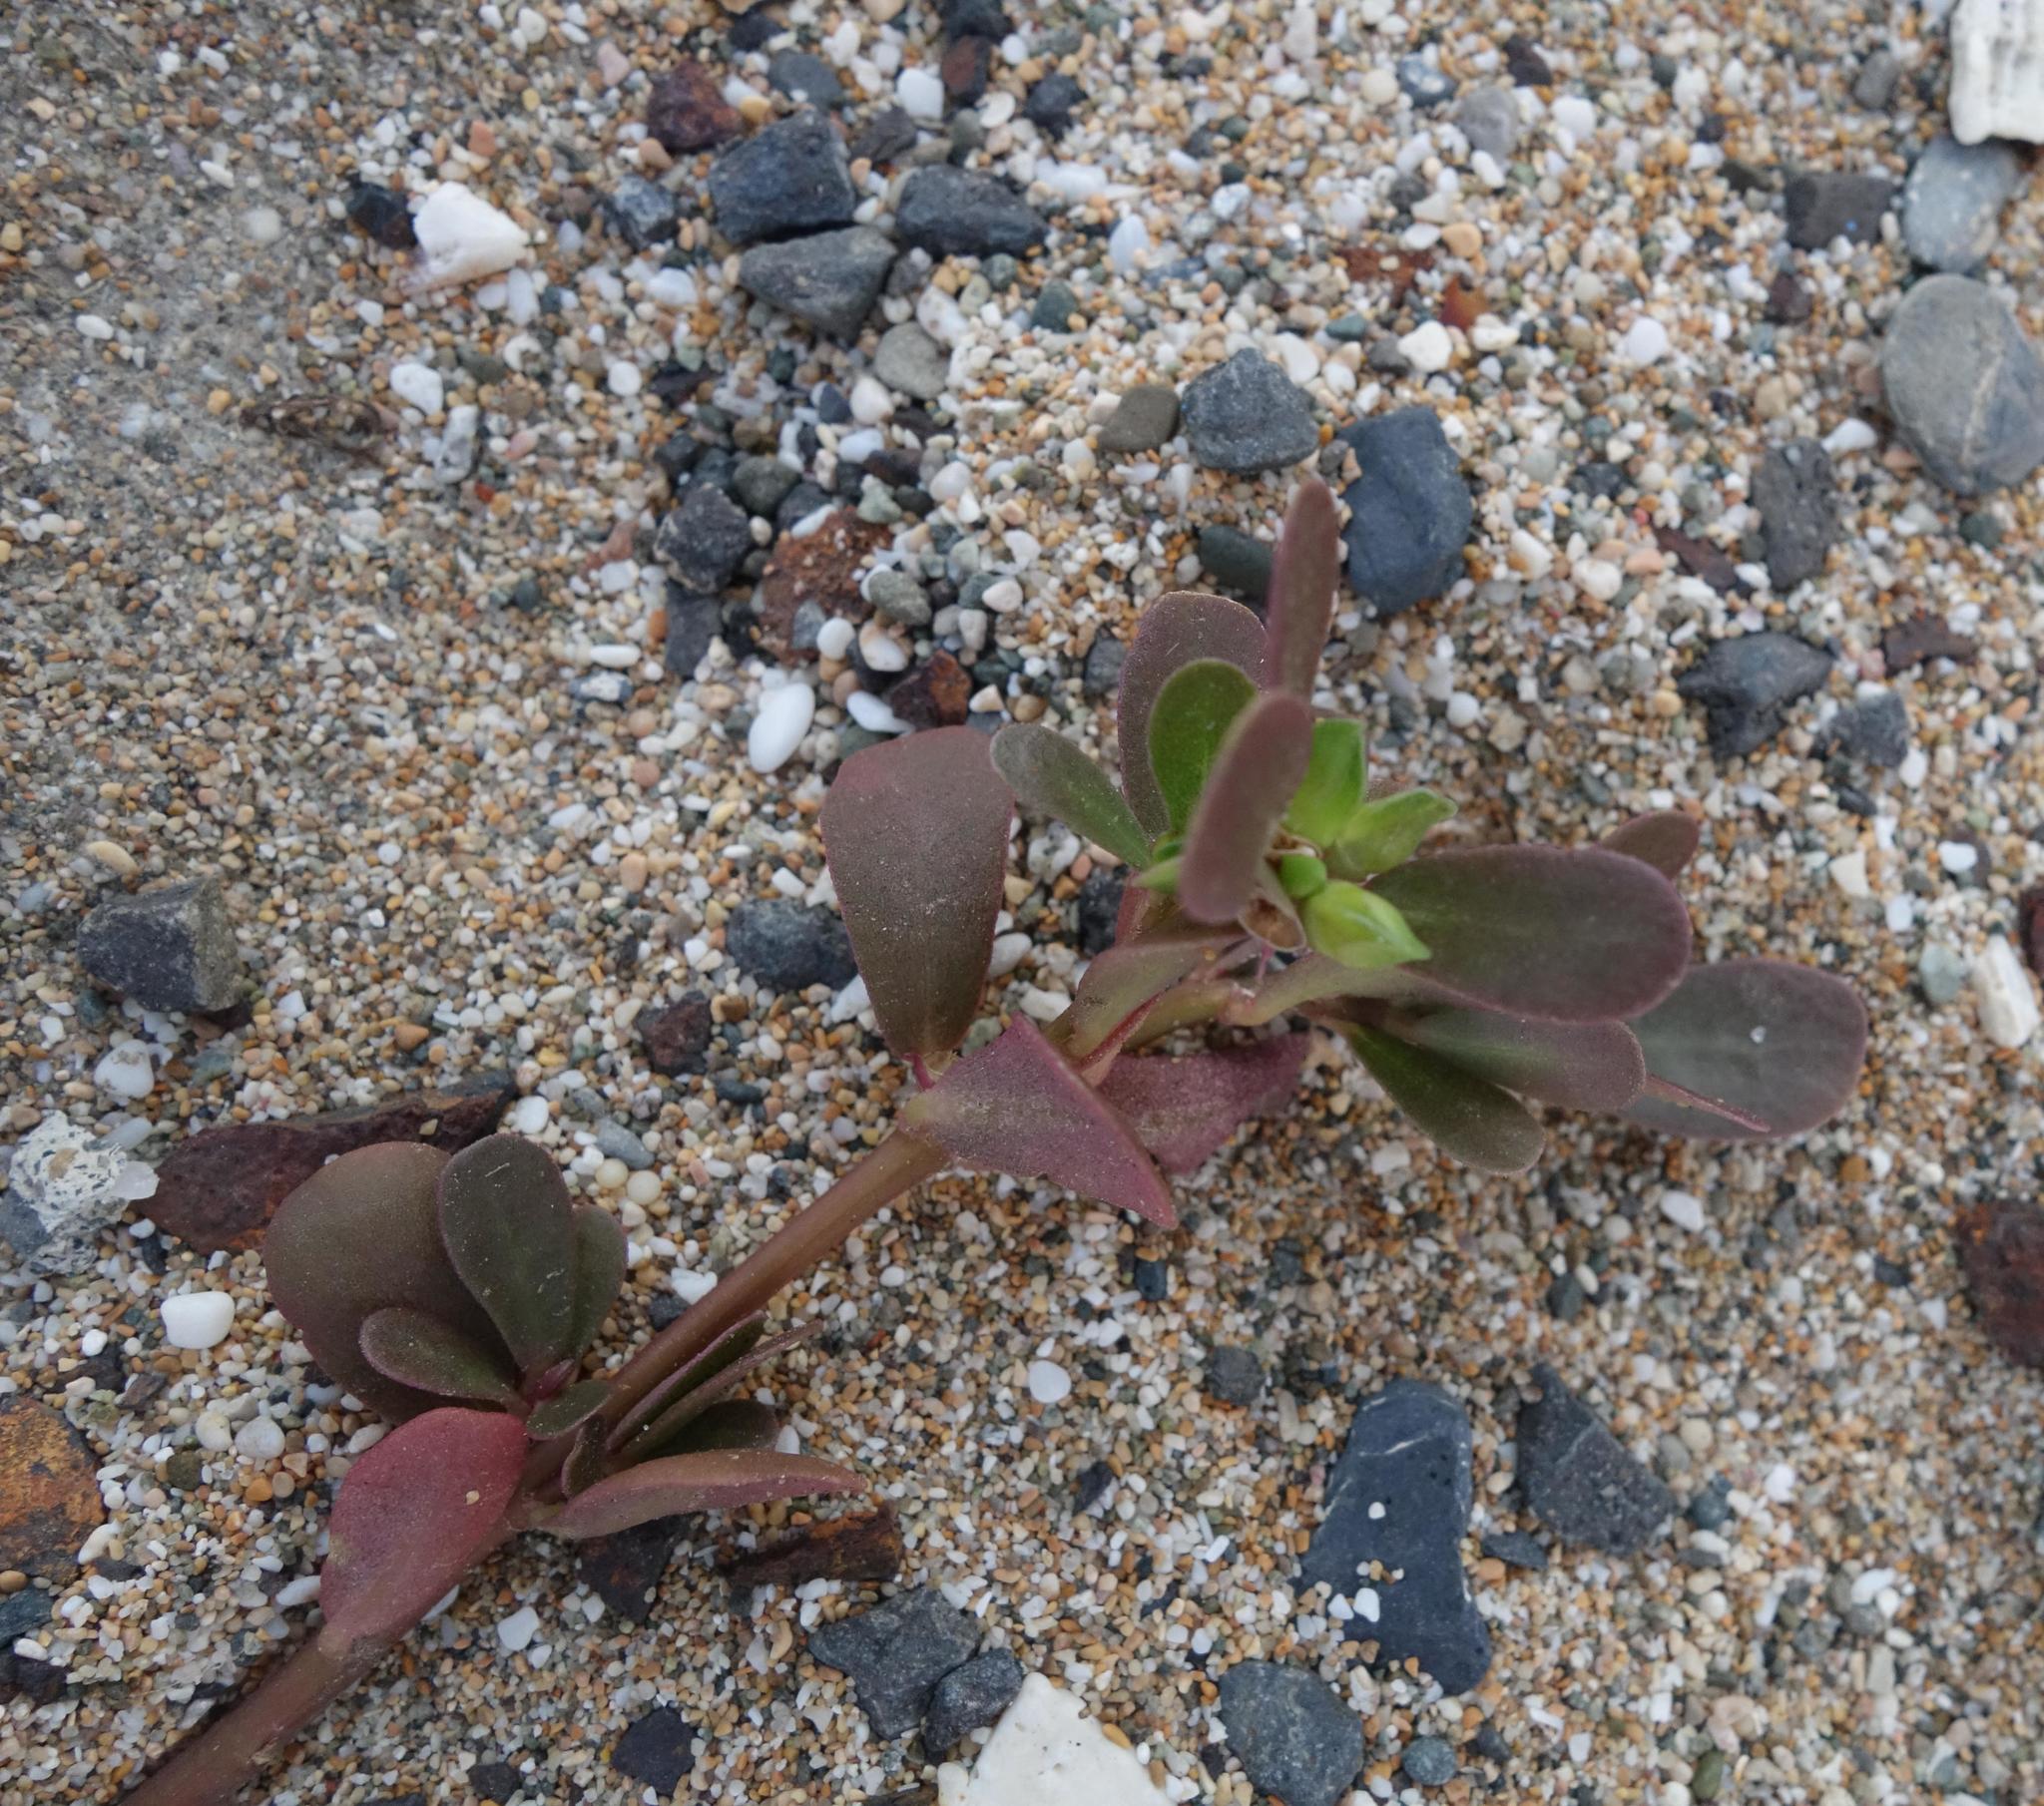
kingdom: Plantae
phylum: Tracheophyta
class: Magnoliopsida
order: Caryophyllales
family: Portulacaceae
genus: Portulaca
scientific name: Portulaca oleracea
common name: Common purslane
